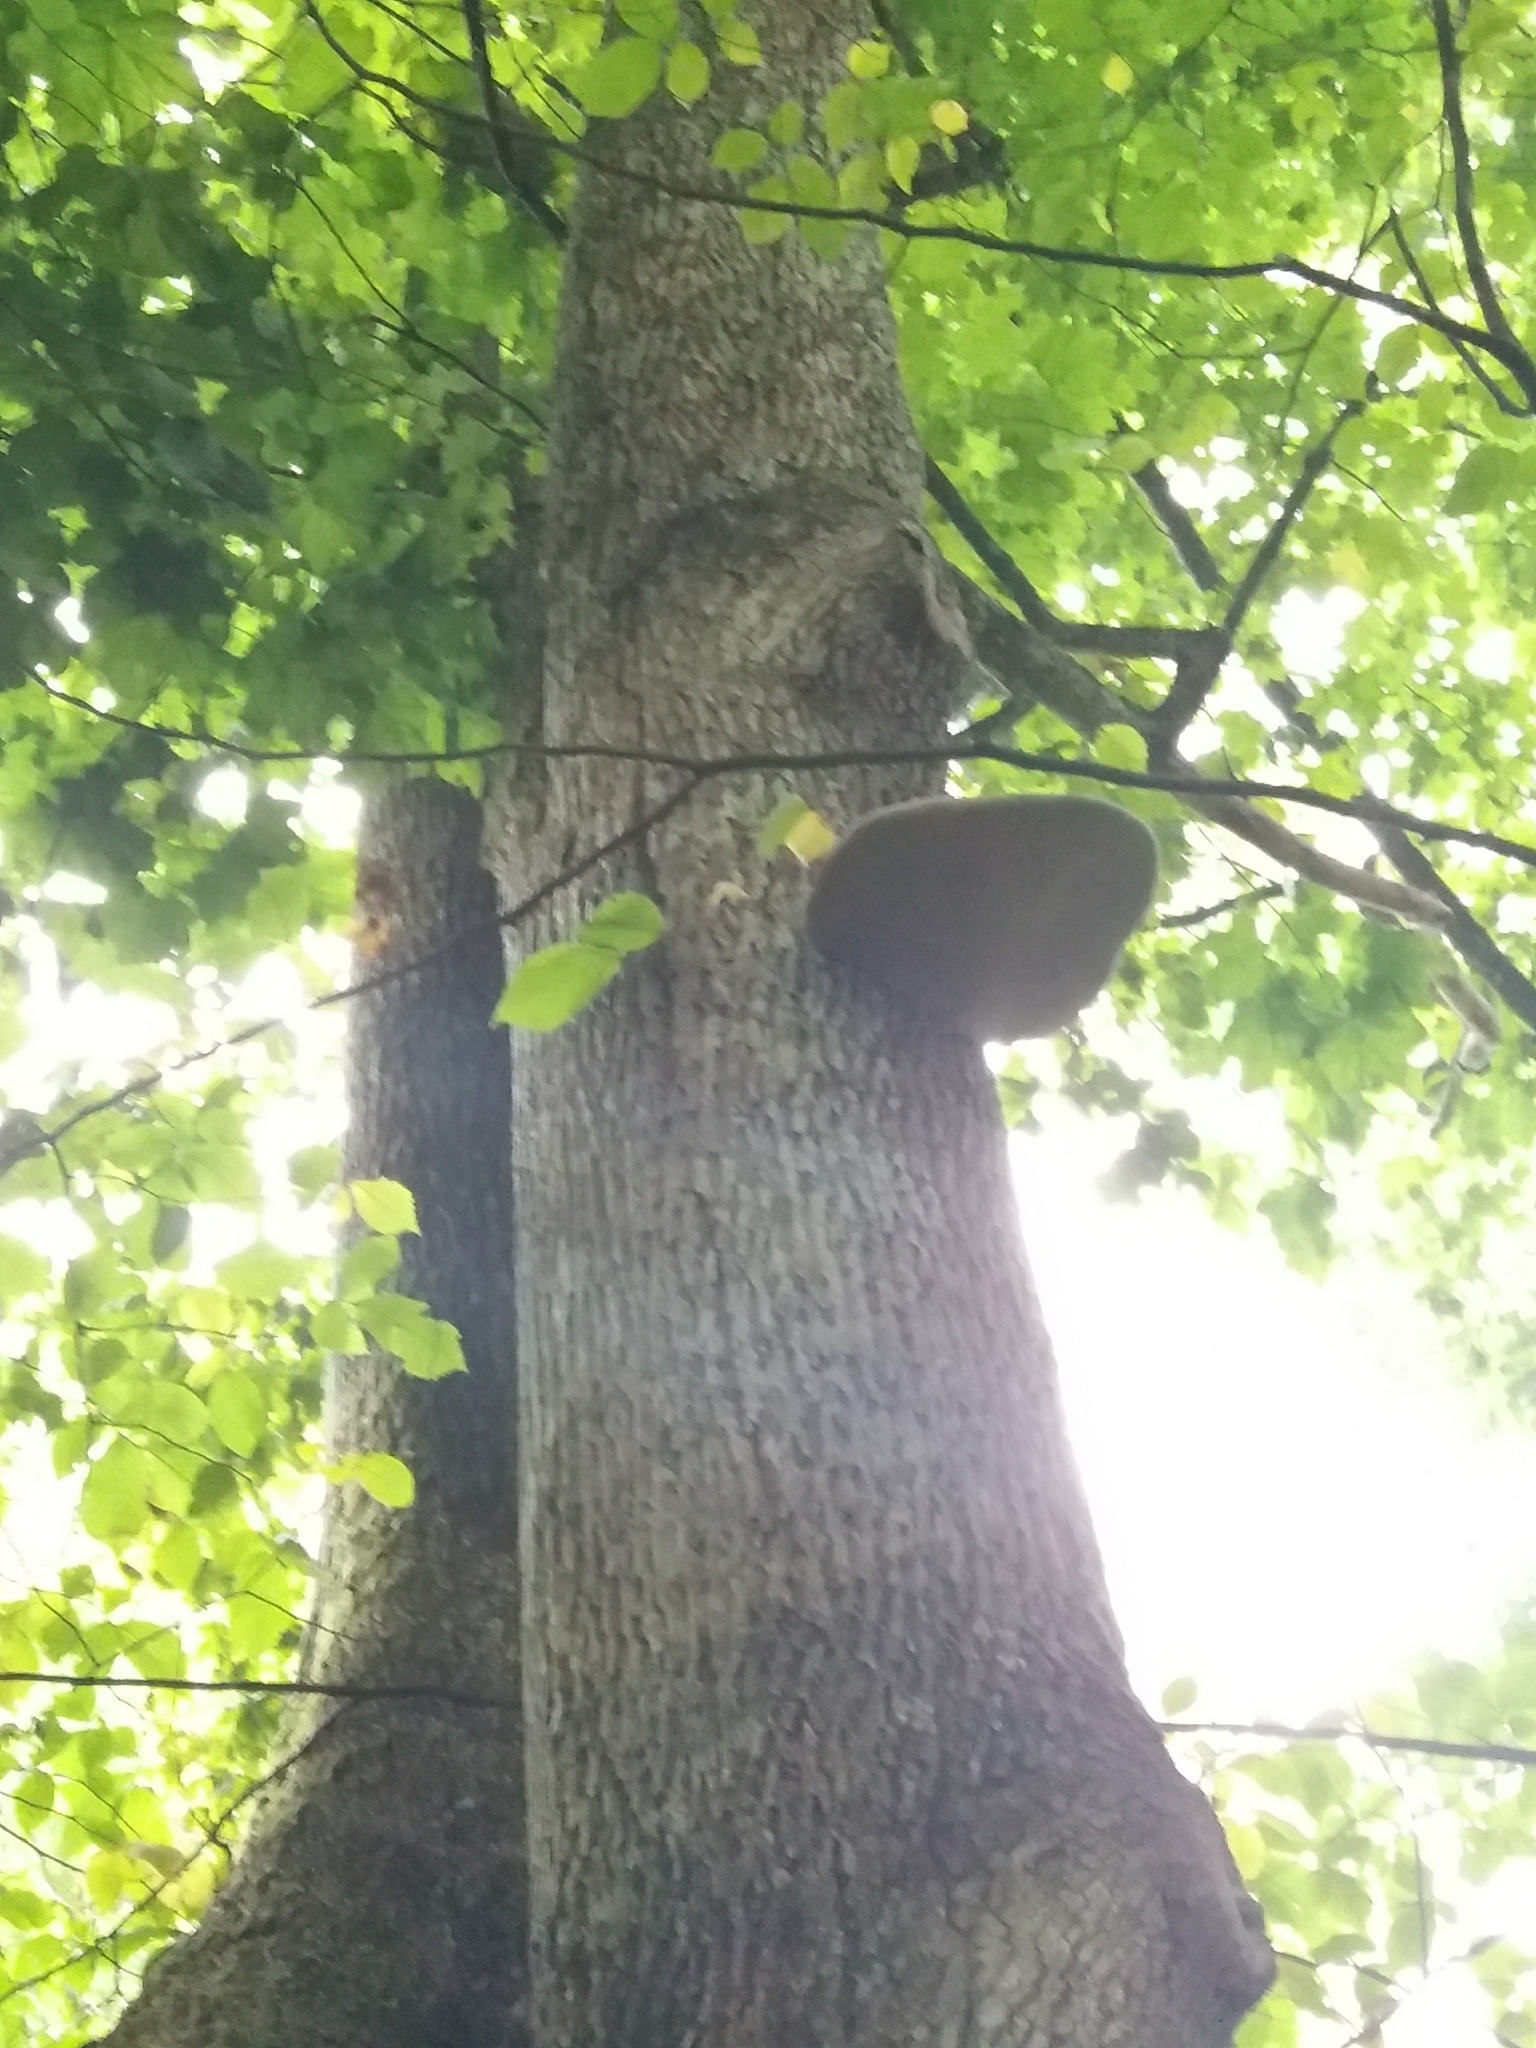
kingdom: Fungi
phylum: Basidiomycota
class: Agaricomycetes
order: Polyporales
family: Polyporaceae
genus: Fomes
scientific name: Fomes fomentarius
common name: Hoof fungus
